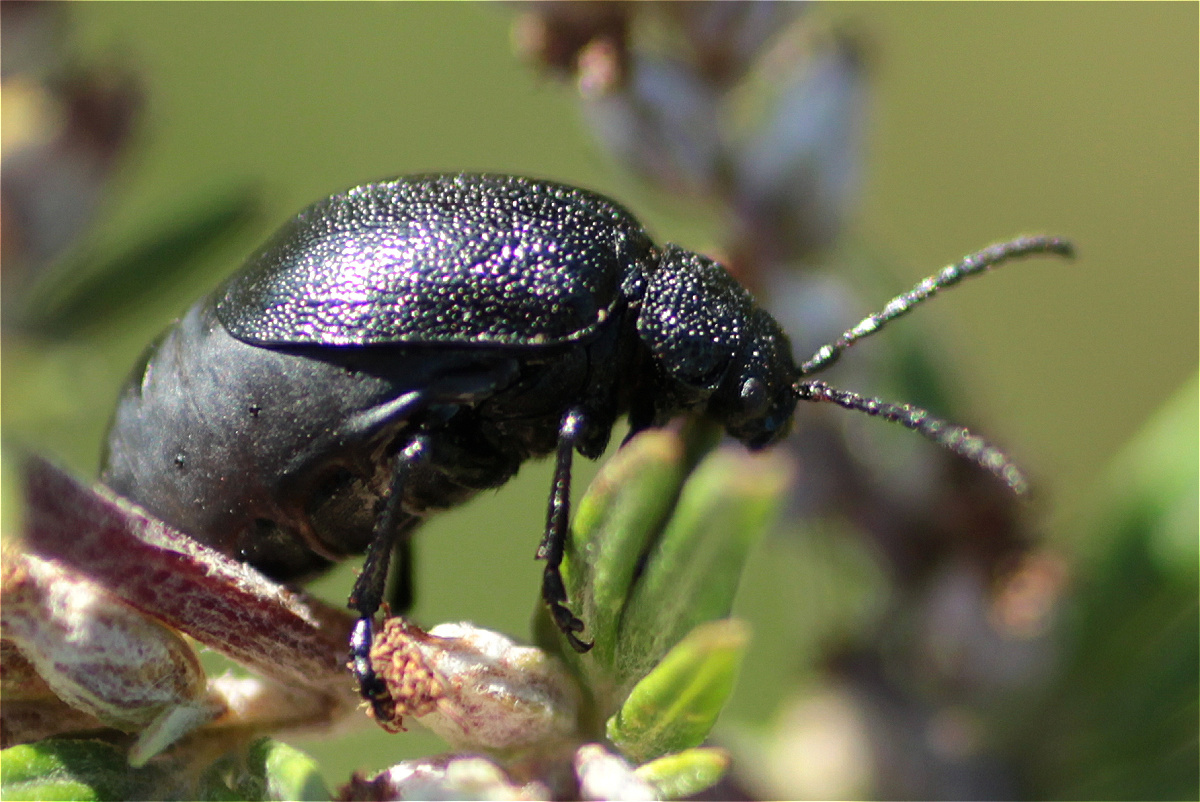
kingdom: Animalia
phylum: Arthropoda
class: Insecta
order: Coleoptera
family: Chrysomelidae
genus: Galeruca
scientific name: Galeruca tanaceti
